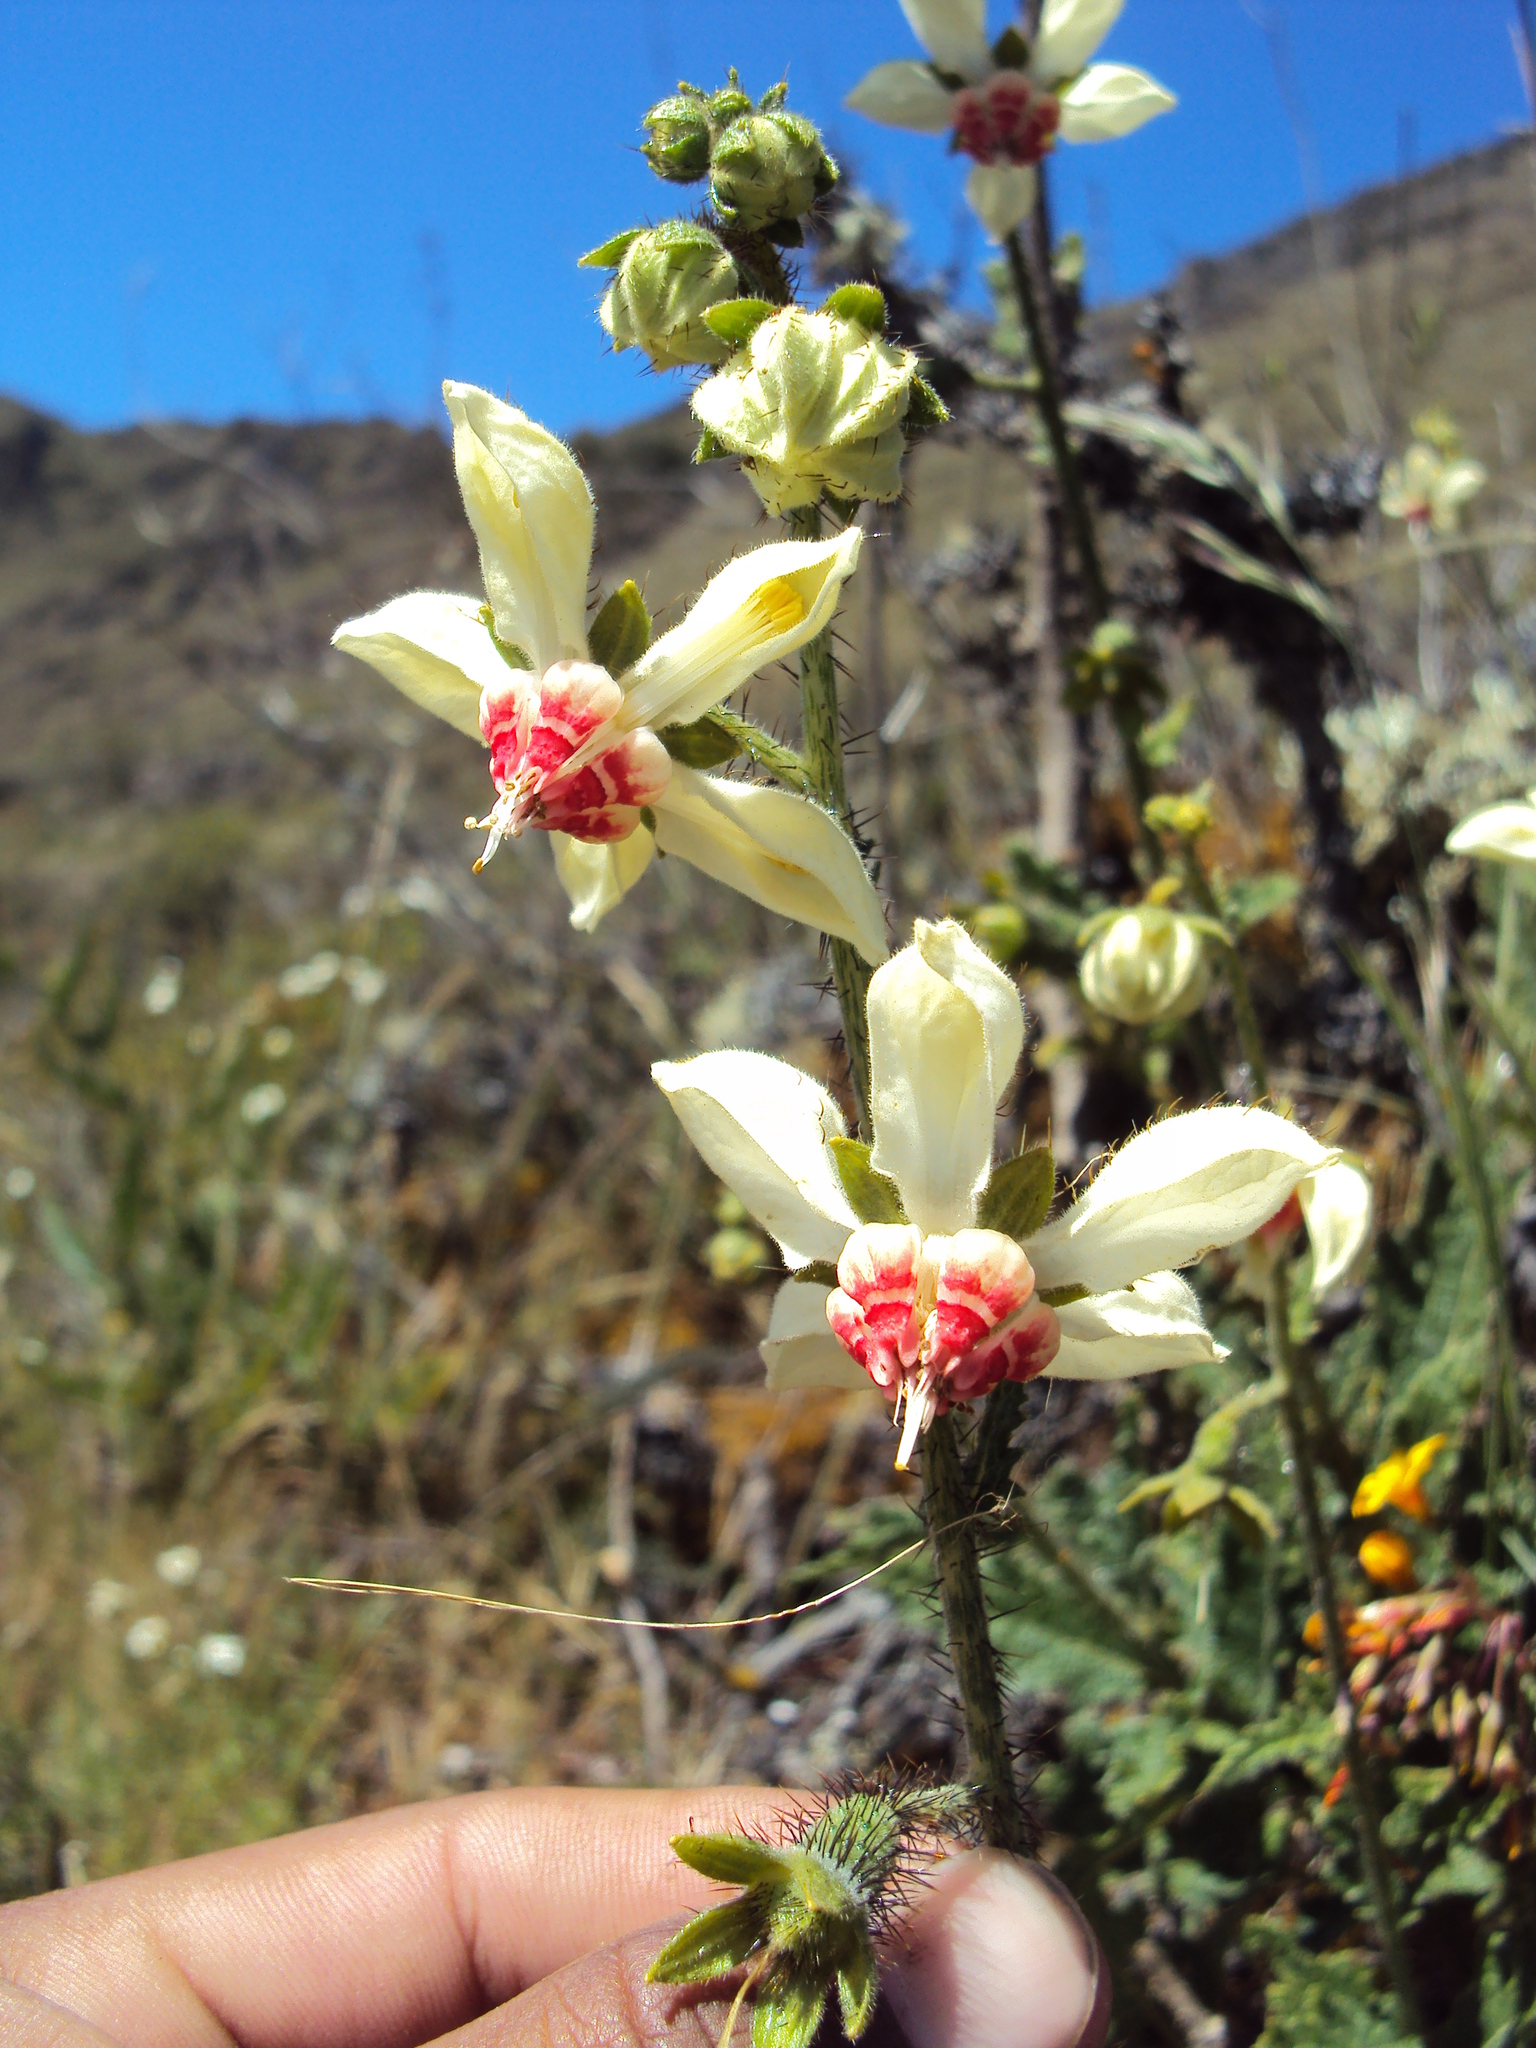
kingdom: Plantae
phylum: Tracheophyta
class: Magnoliopsida
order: Cornales
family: Loasaceae
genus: Nasa
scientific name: Nasa carunculata
